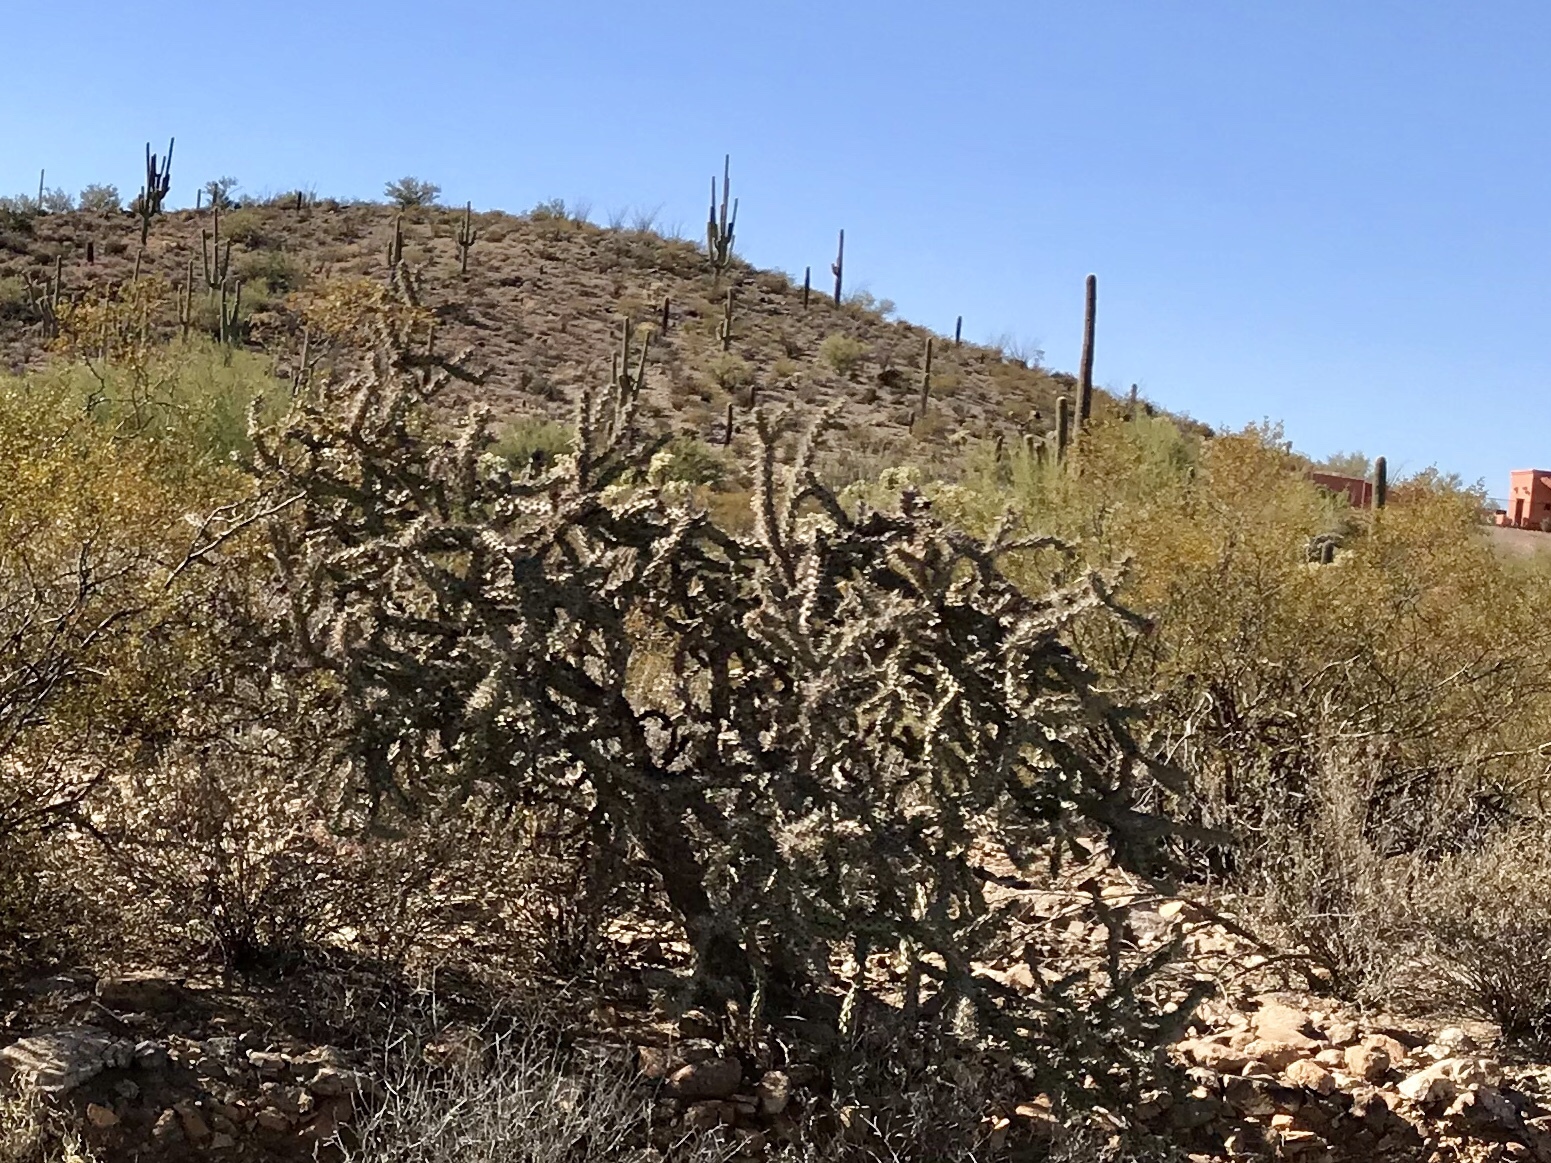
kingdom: Plantae
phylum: Tracheophyta
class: Magnoliopsida
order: Caryophyllales
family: Cactaceae
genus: Cylindropuntia
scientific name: Cylindropuntia thurberi
